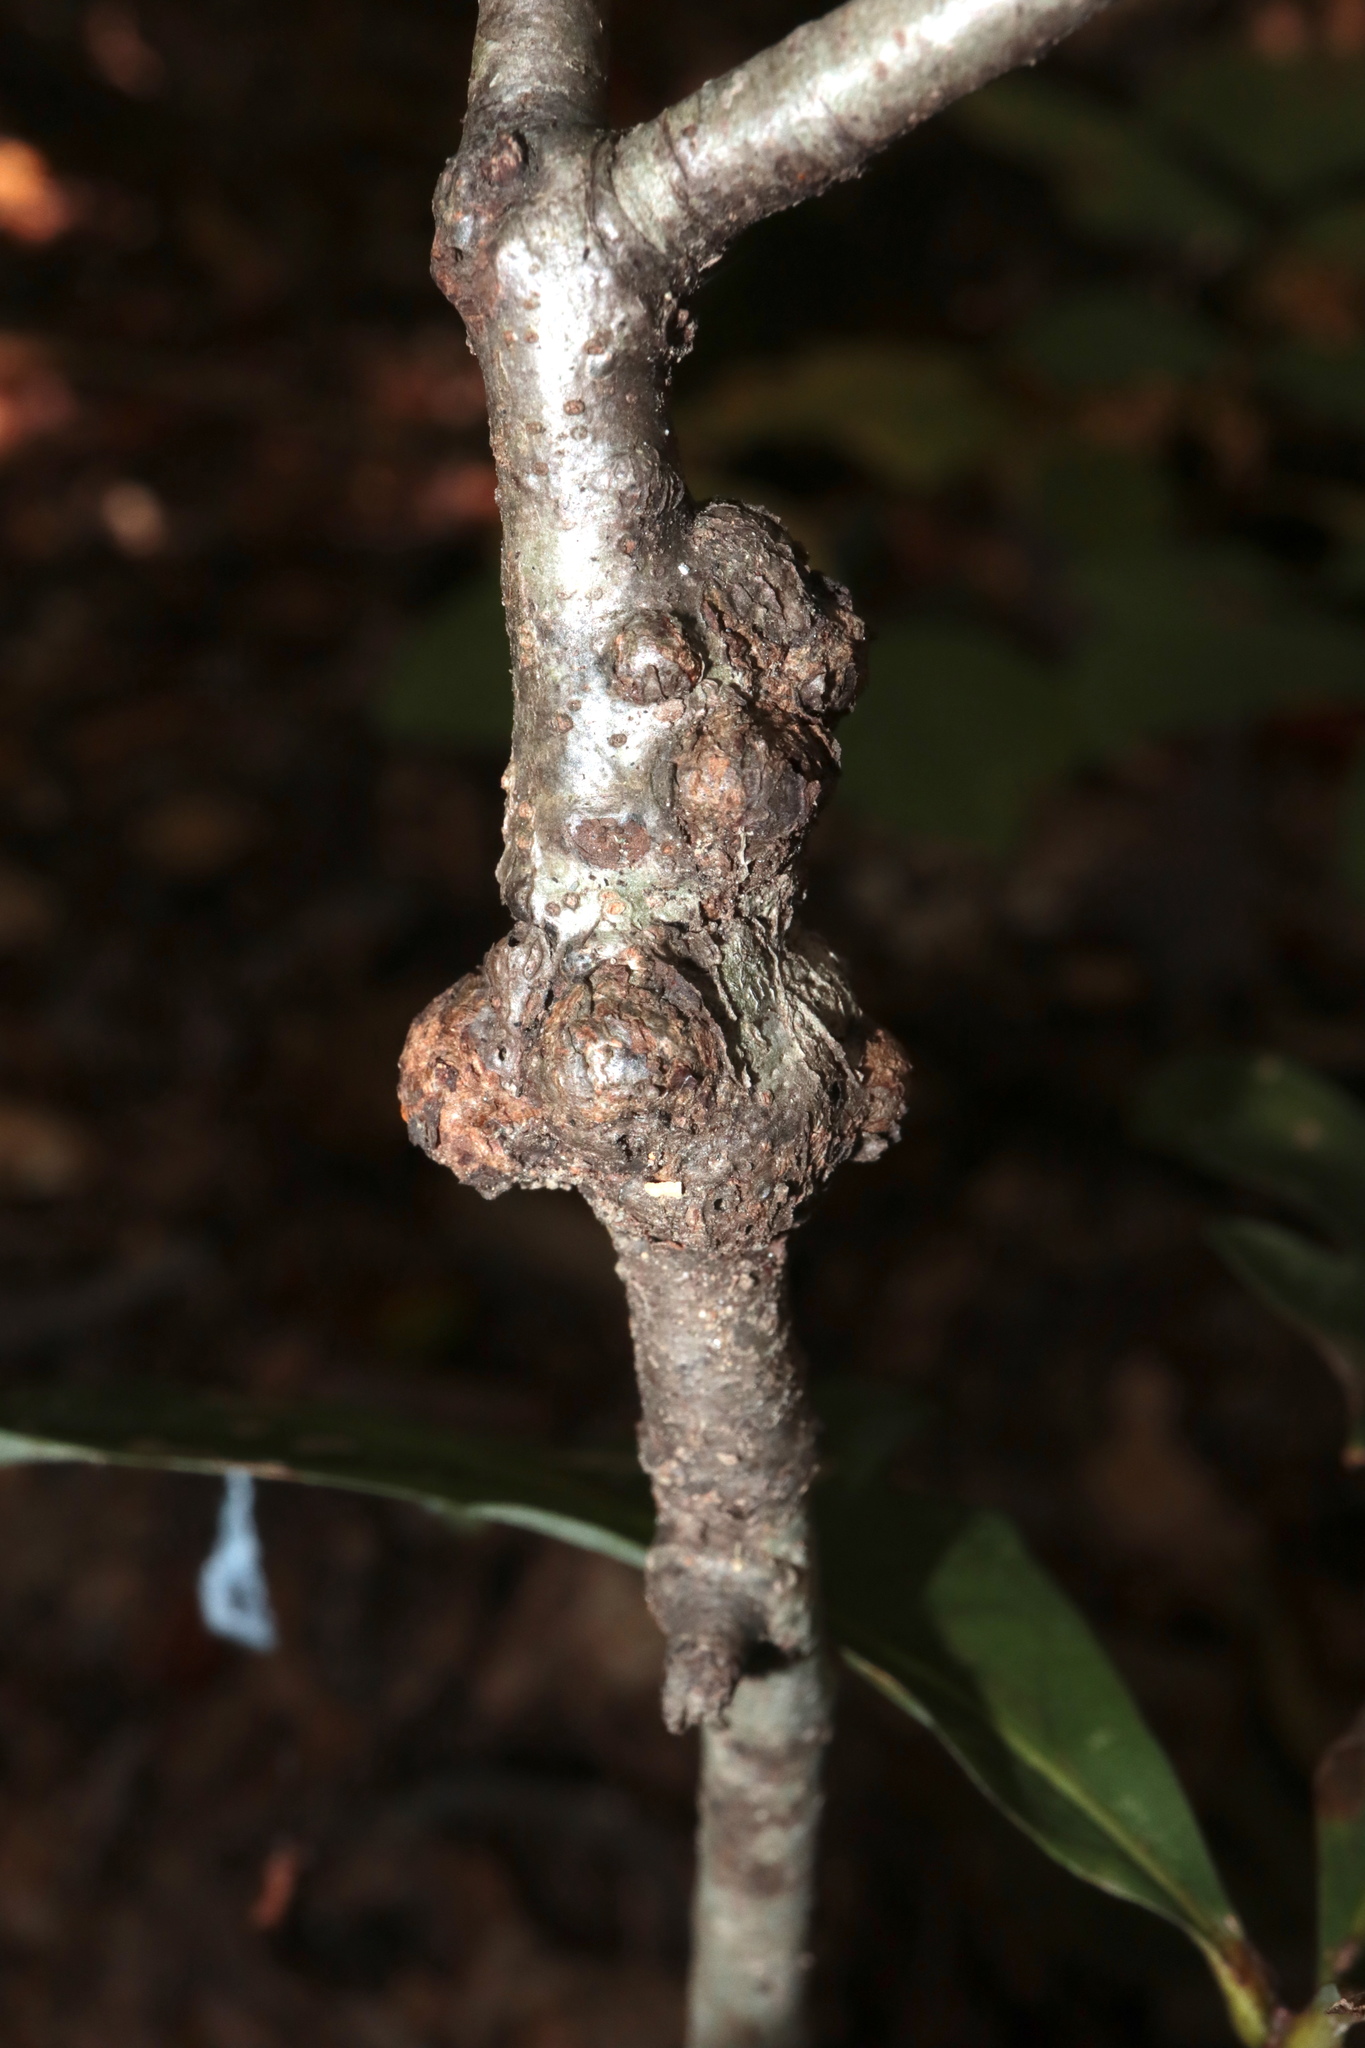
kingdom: Animalia
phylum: Arthropoda
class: Insecta
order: Hymenoptera
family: Cynipidae
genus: Callirhytis
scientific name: Callirhytis
